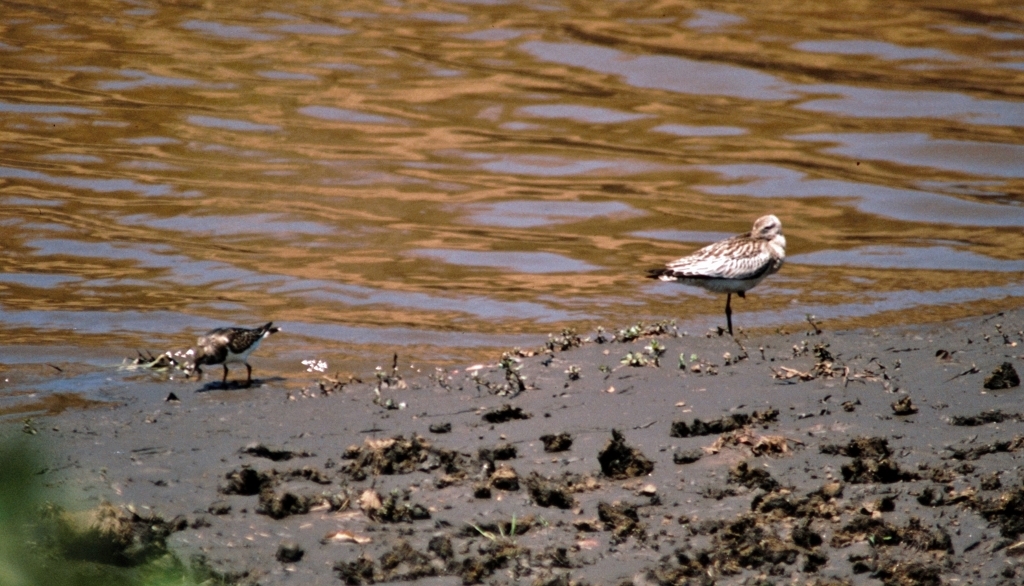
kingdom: Animalia
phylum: Chordata
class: Aves
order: Charadriiformes
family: Scolopacidae
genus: Arenaria
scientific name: Arenaria interpres
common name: Ruddy turnstone
